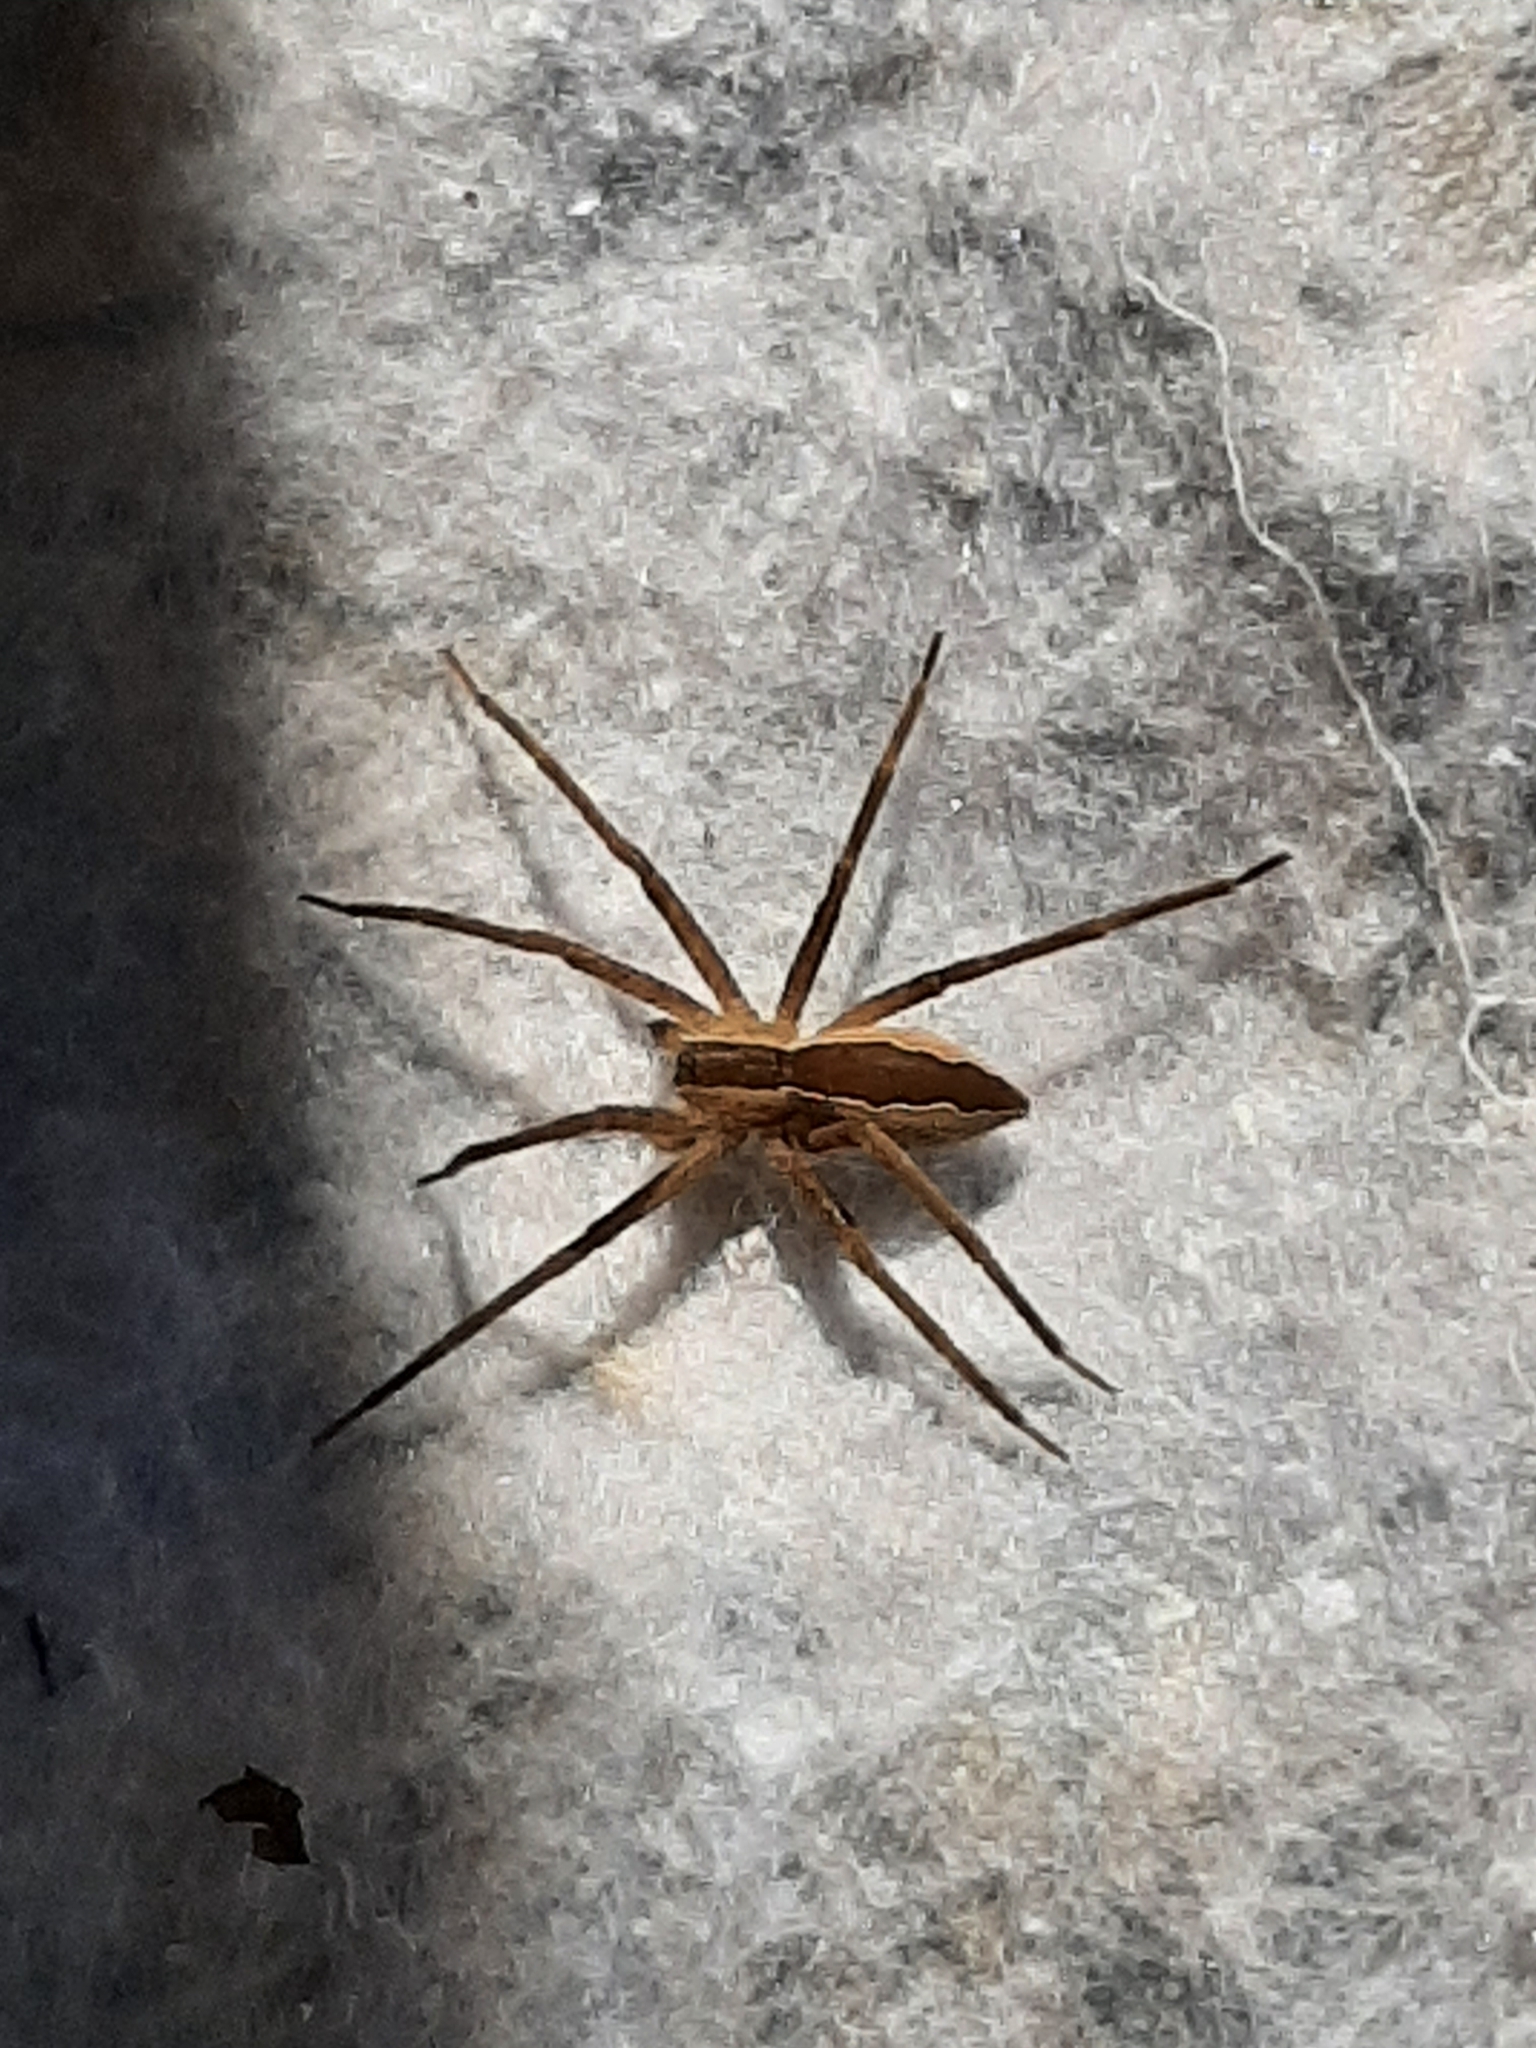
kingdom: Animalia
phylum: Arthropoda
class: Arachnida
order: Araneae
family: Pisauridae
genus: Pisaurina
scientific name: Pisaurina mira
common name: American nursery web spider
